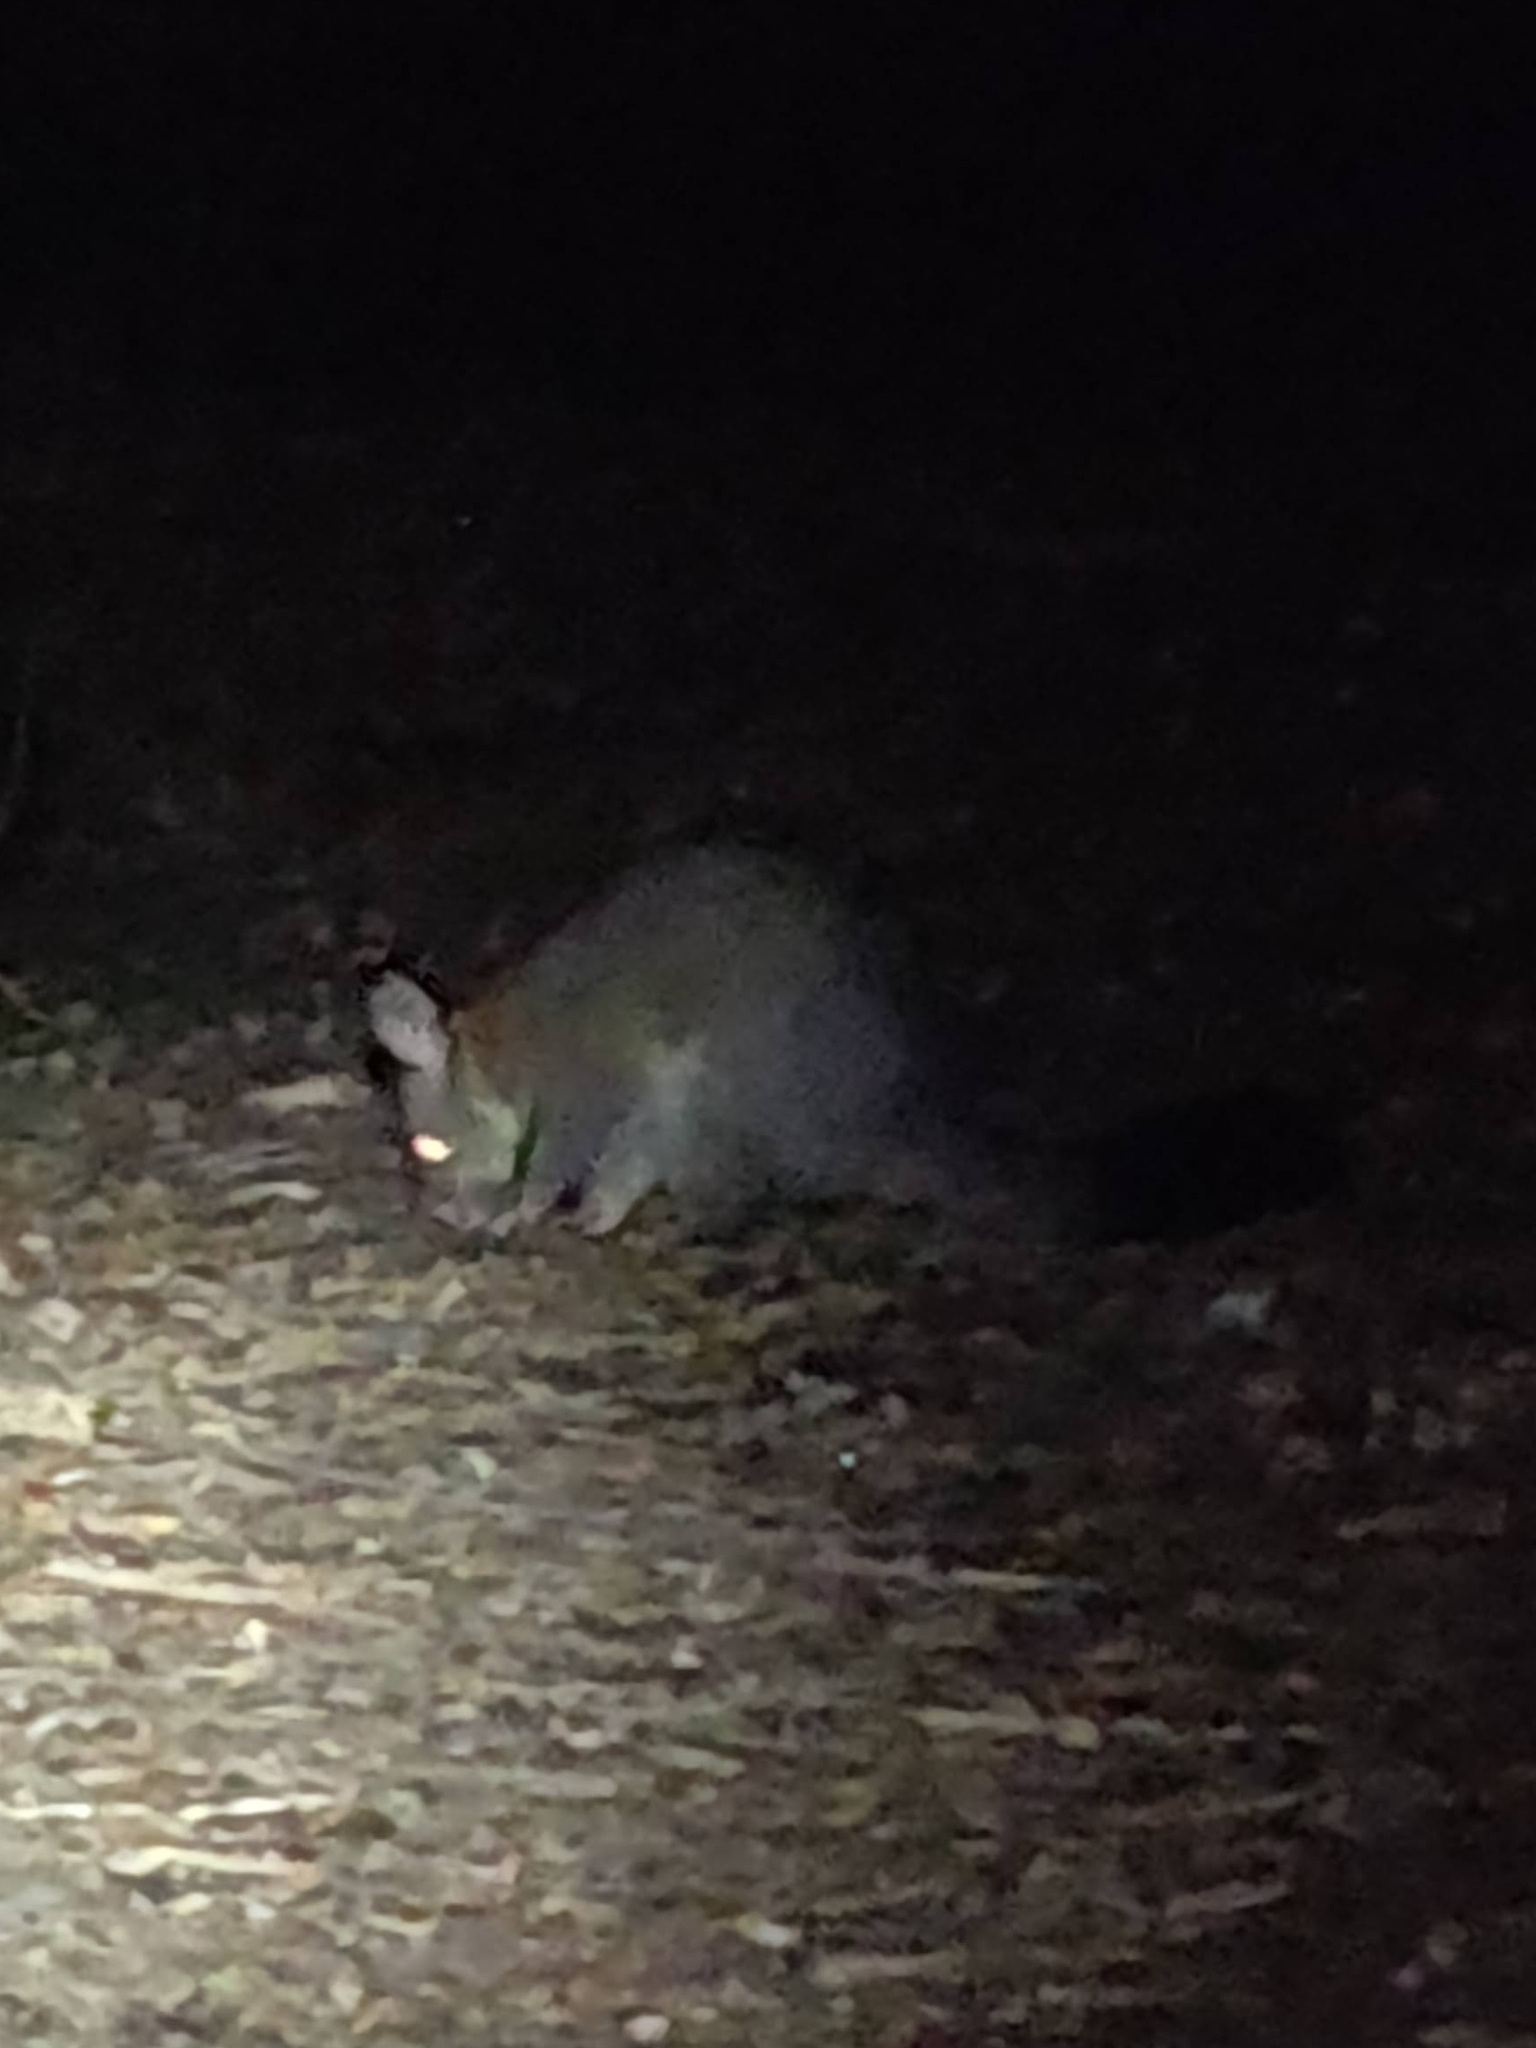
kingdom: Animalia
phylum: Chordata
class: Mammalia
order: Diprotodontia
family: Phalangeridae
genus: Trichosurus
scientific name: Trichosurus vulpecula
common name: Common brushtail
